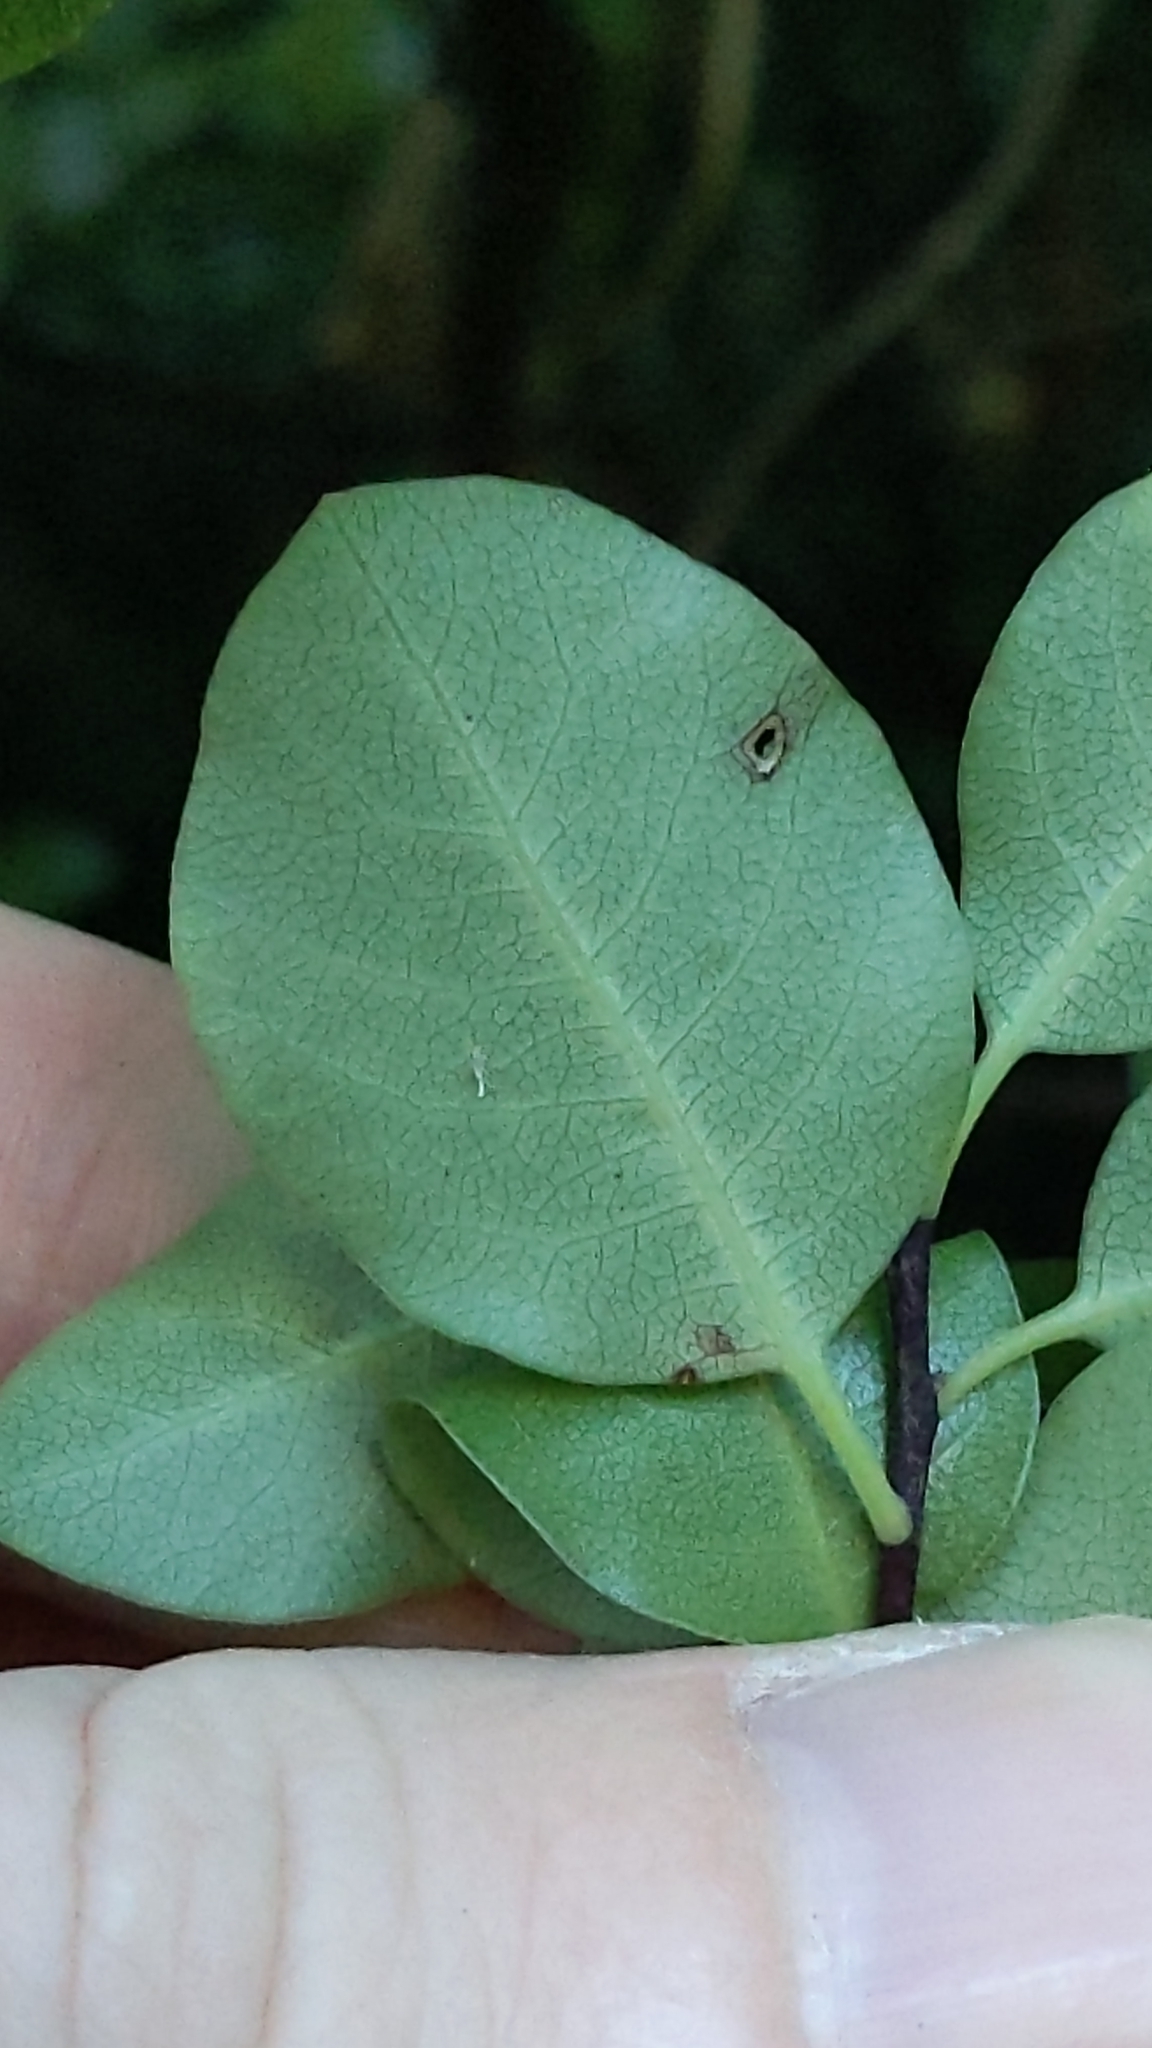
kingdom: Plantae
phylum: Tracheophyta
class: Magnoliopsida
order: Apiales
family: Pittosporaceae
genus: Pittosporum
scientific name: Pittosporum tenuifolium
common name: Kohuhu
